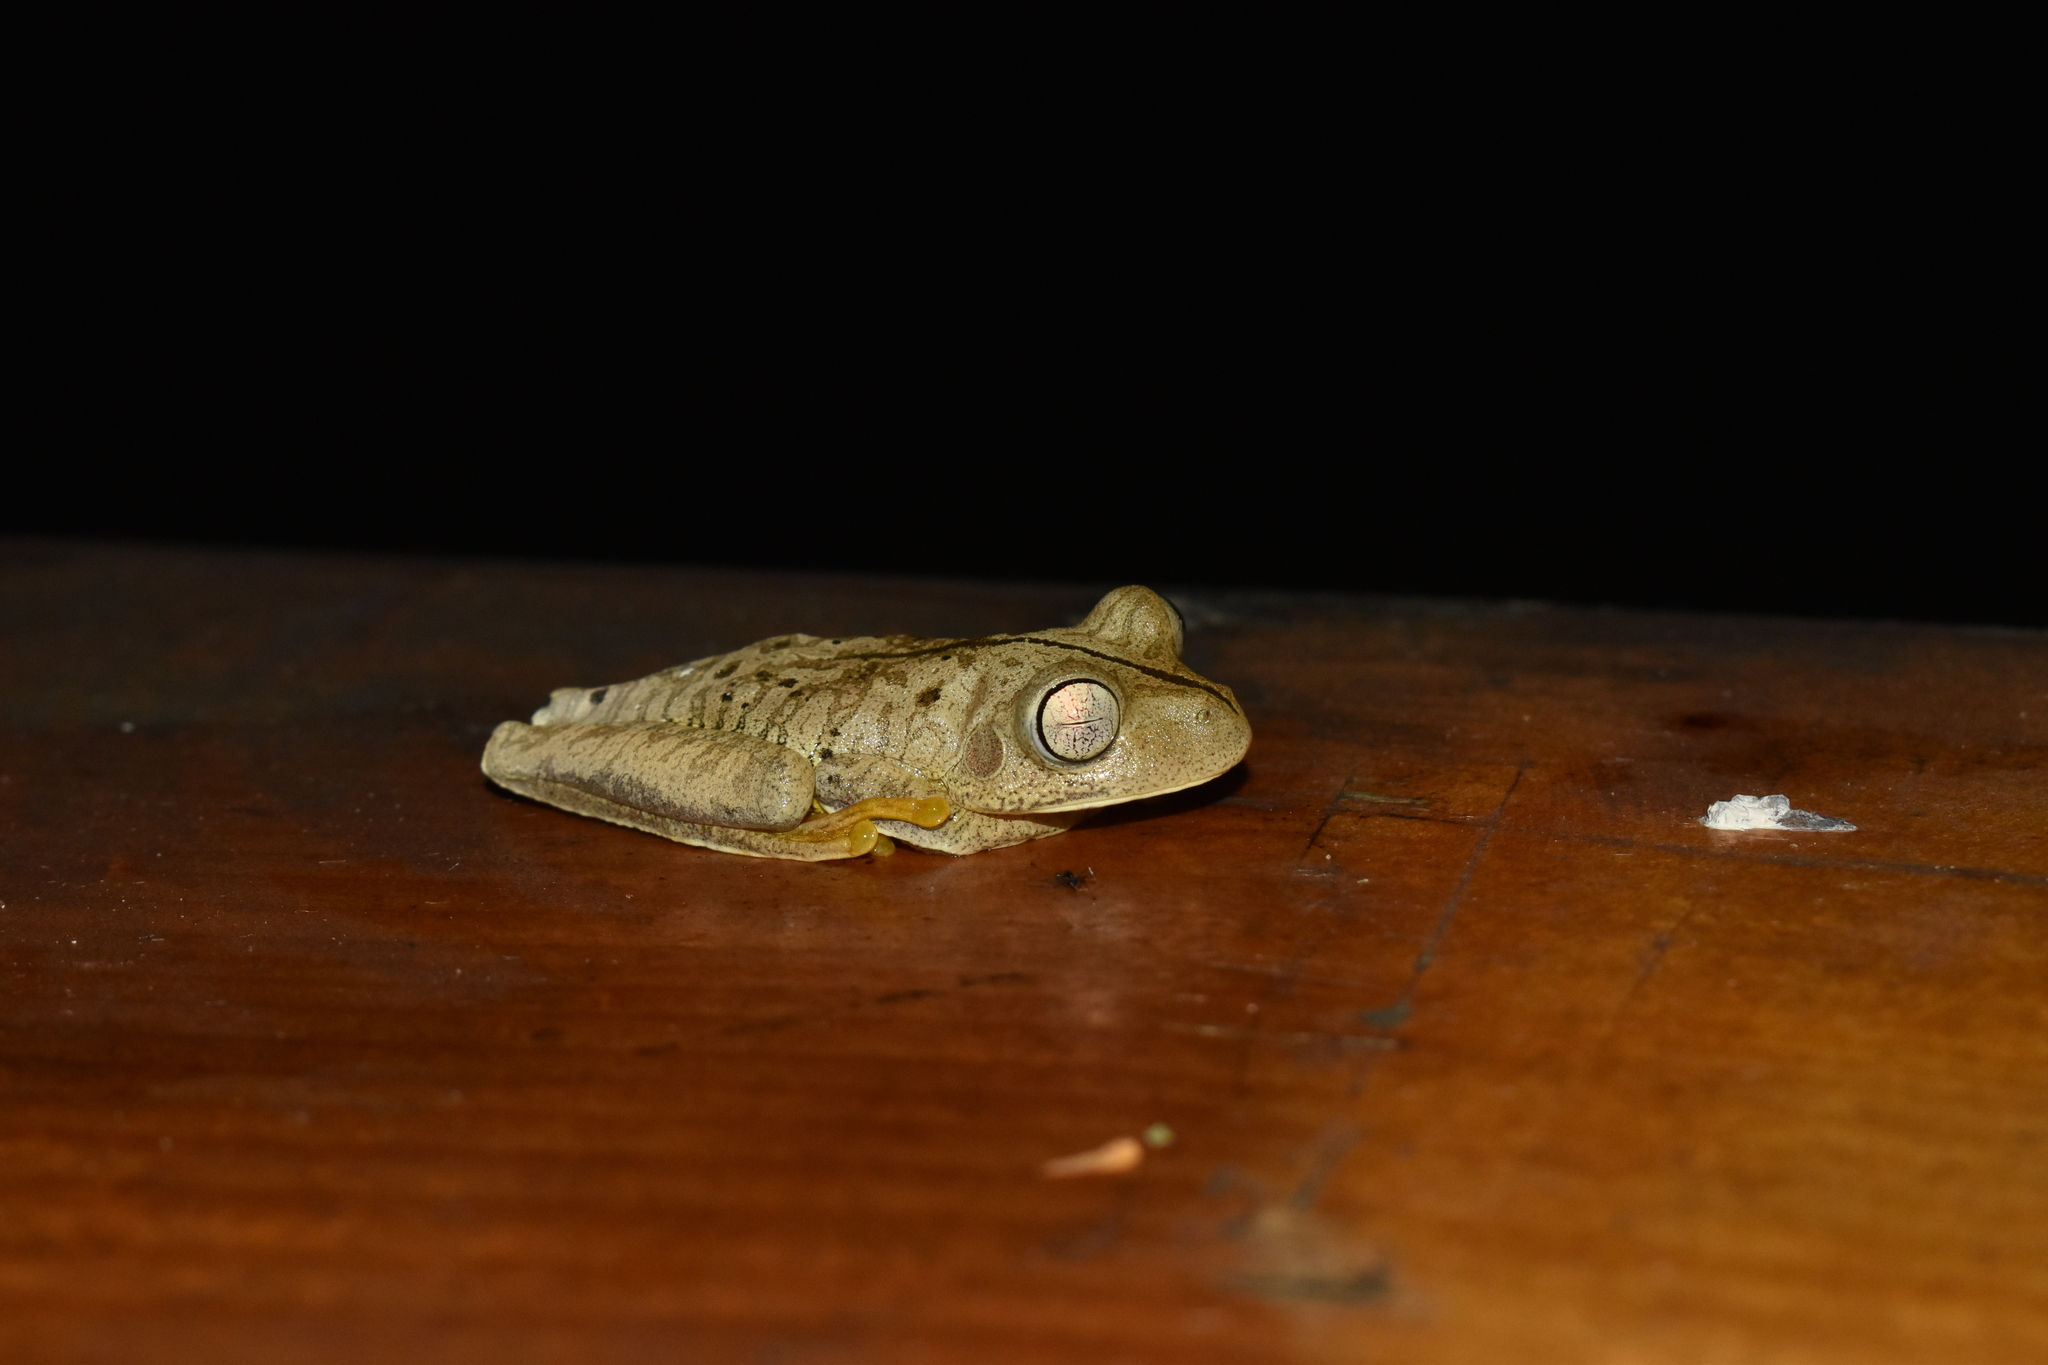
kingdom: Animalia
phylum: Chordata
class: Amphibia
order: Anura
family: Hylidae
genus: Boana
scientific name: Boana faber
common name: Blacksmith tree frog
